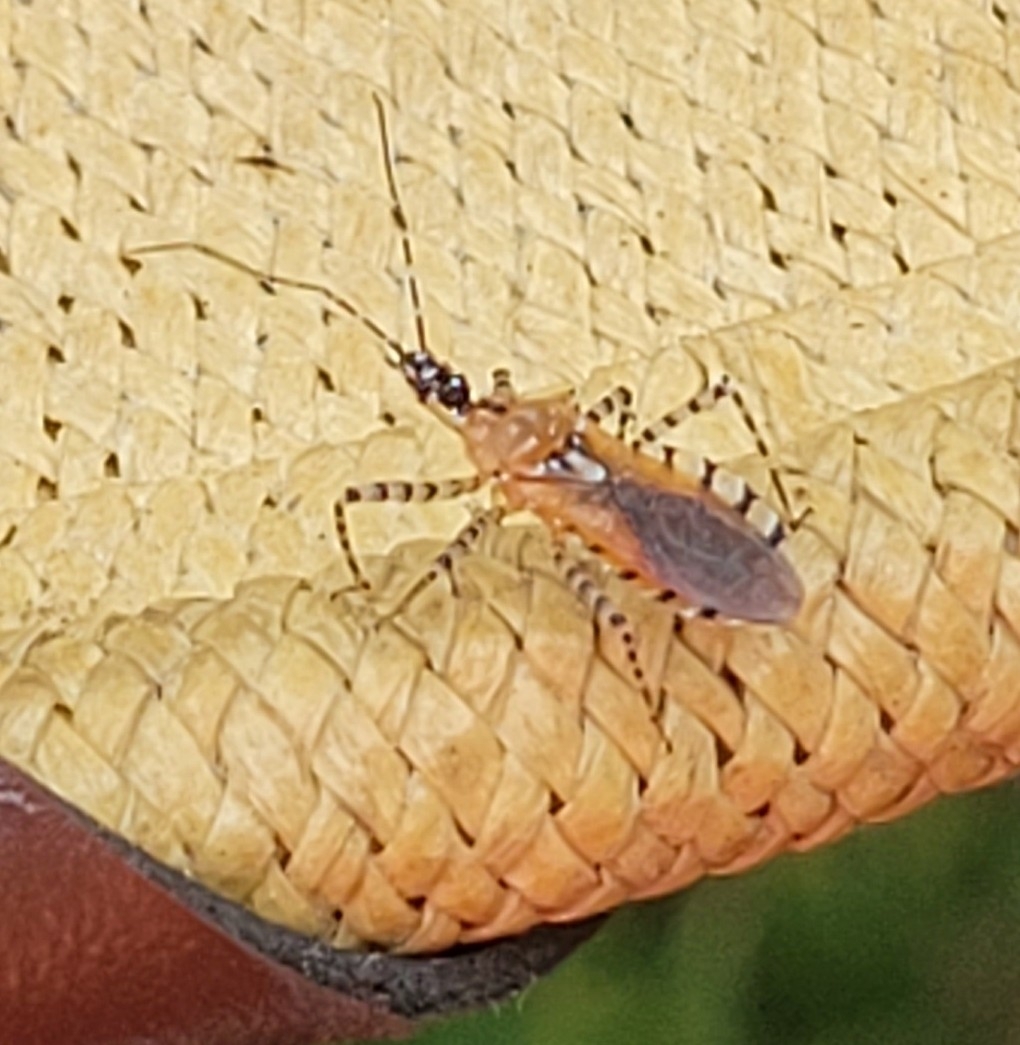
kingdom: Animalia
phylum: Arthropoda
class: Insecta
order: Hemiptera
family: Reduviidae
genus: Pselliopus
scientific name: Pselliopus cinctus
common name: Ringed assassin bug
